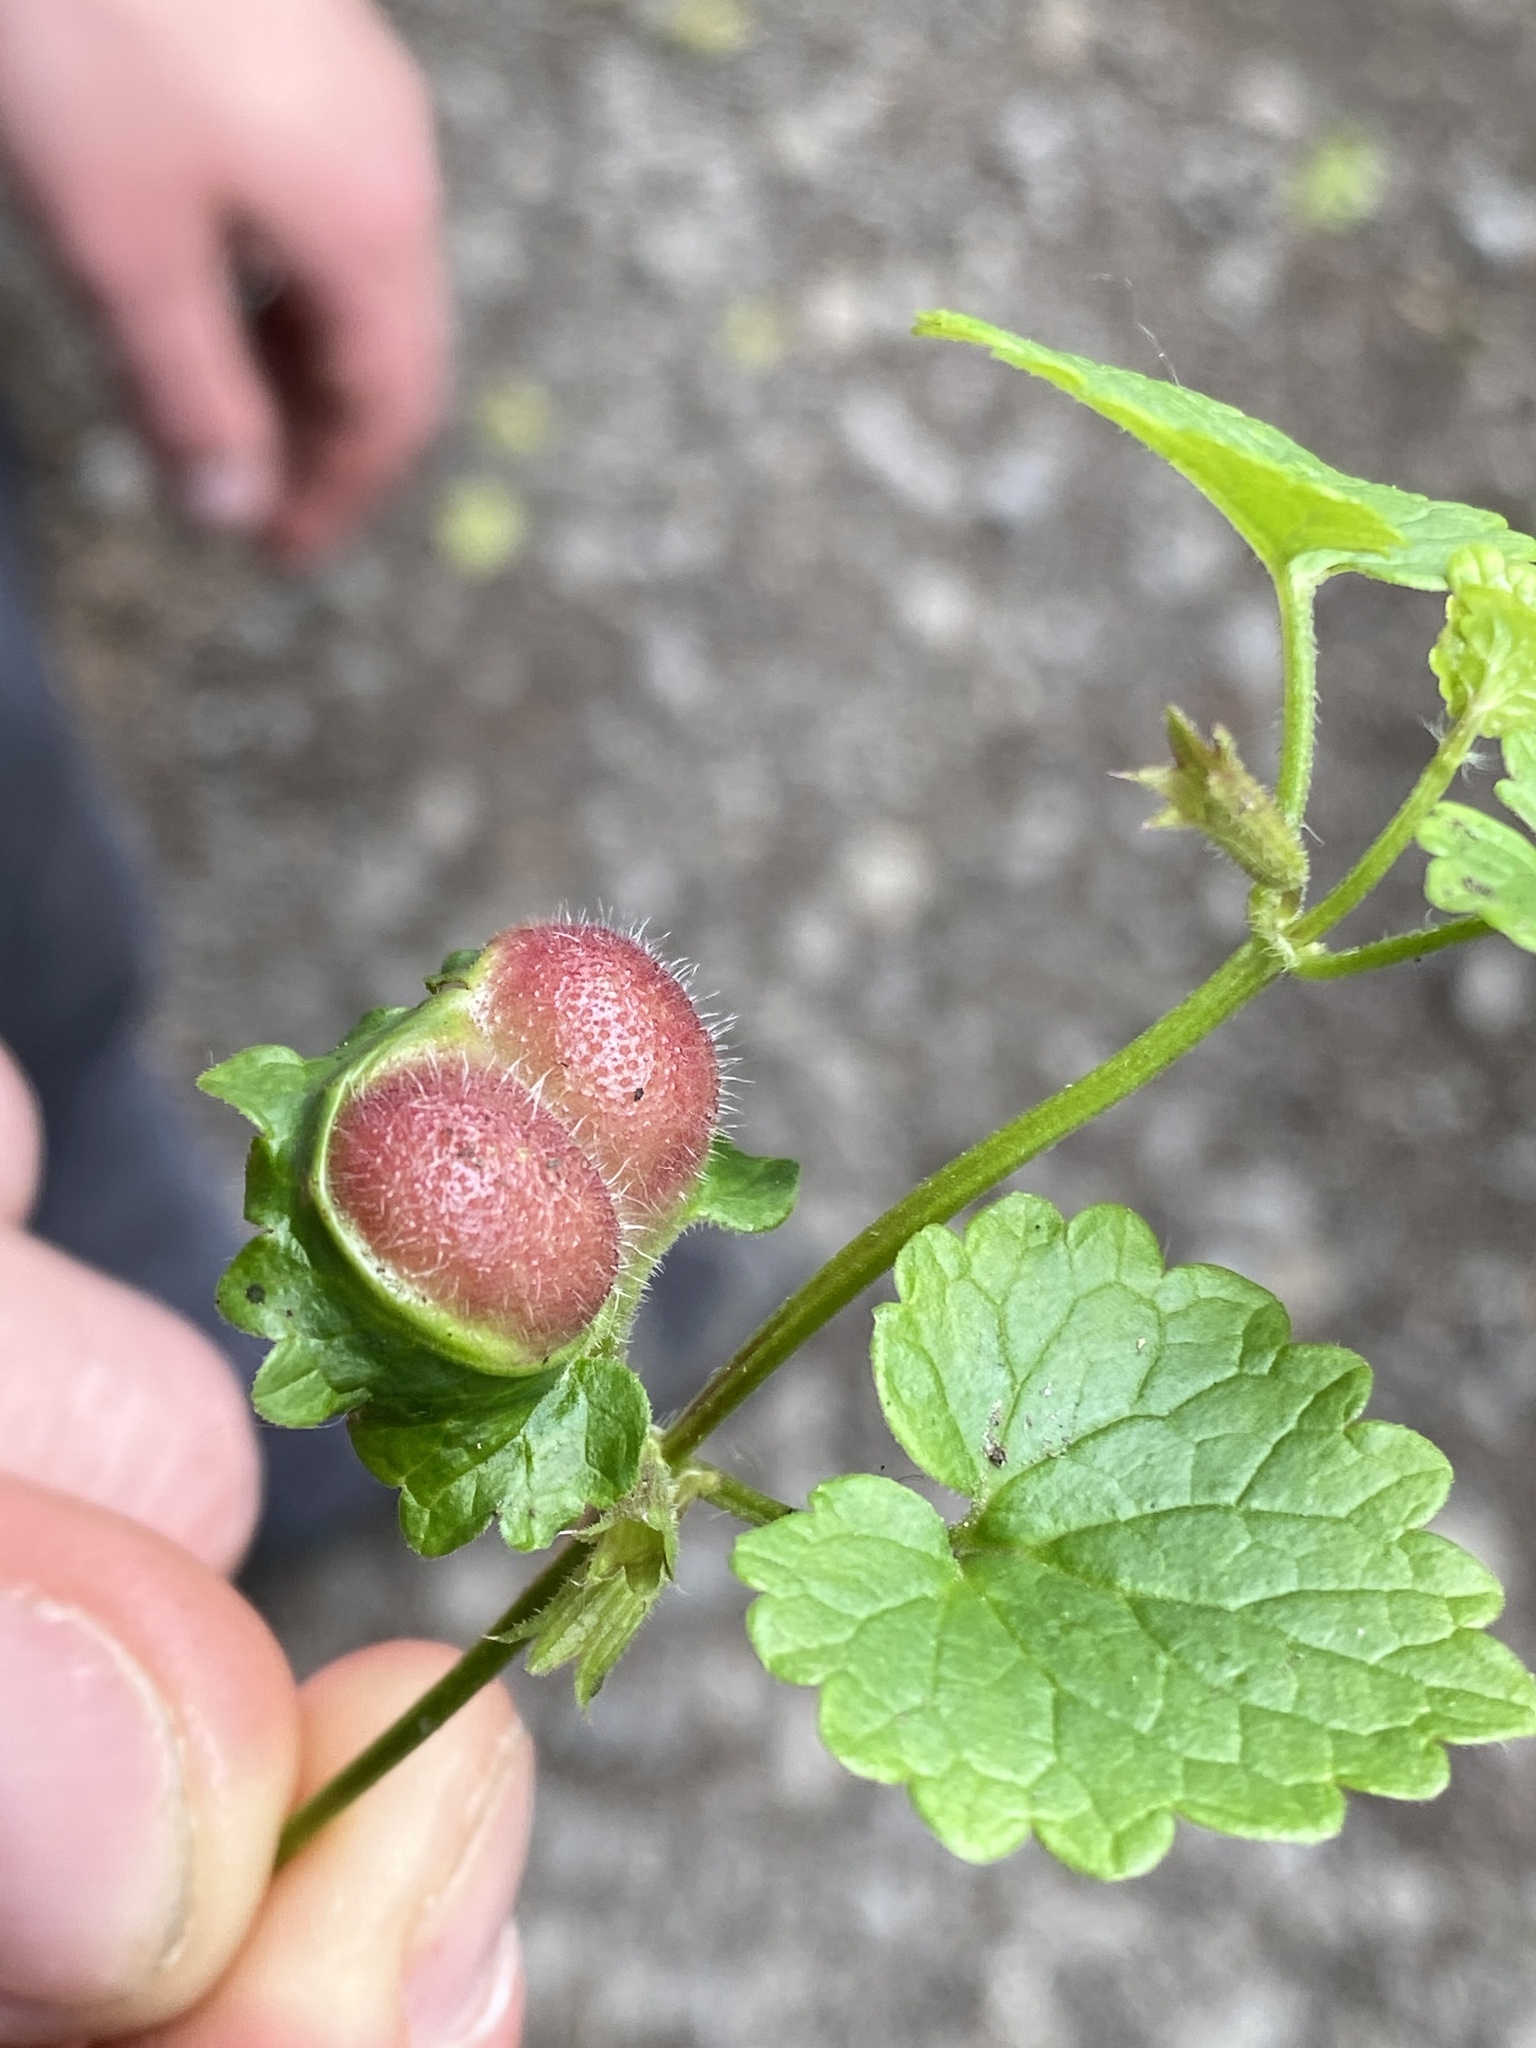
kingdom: Animalia
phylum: Arthropoda
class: Insecta
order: Hymenoptera
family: Cynipidae
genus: Liposthenes
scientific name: Liposthenes glechomae
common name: Gall wasp
